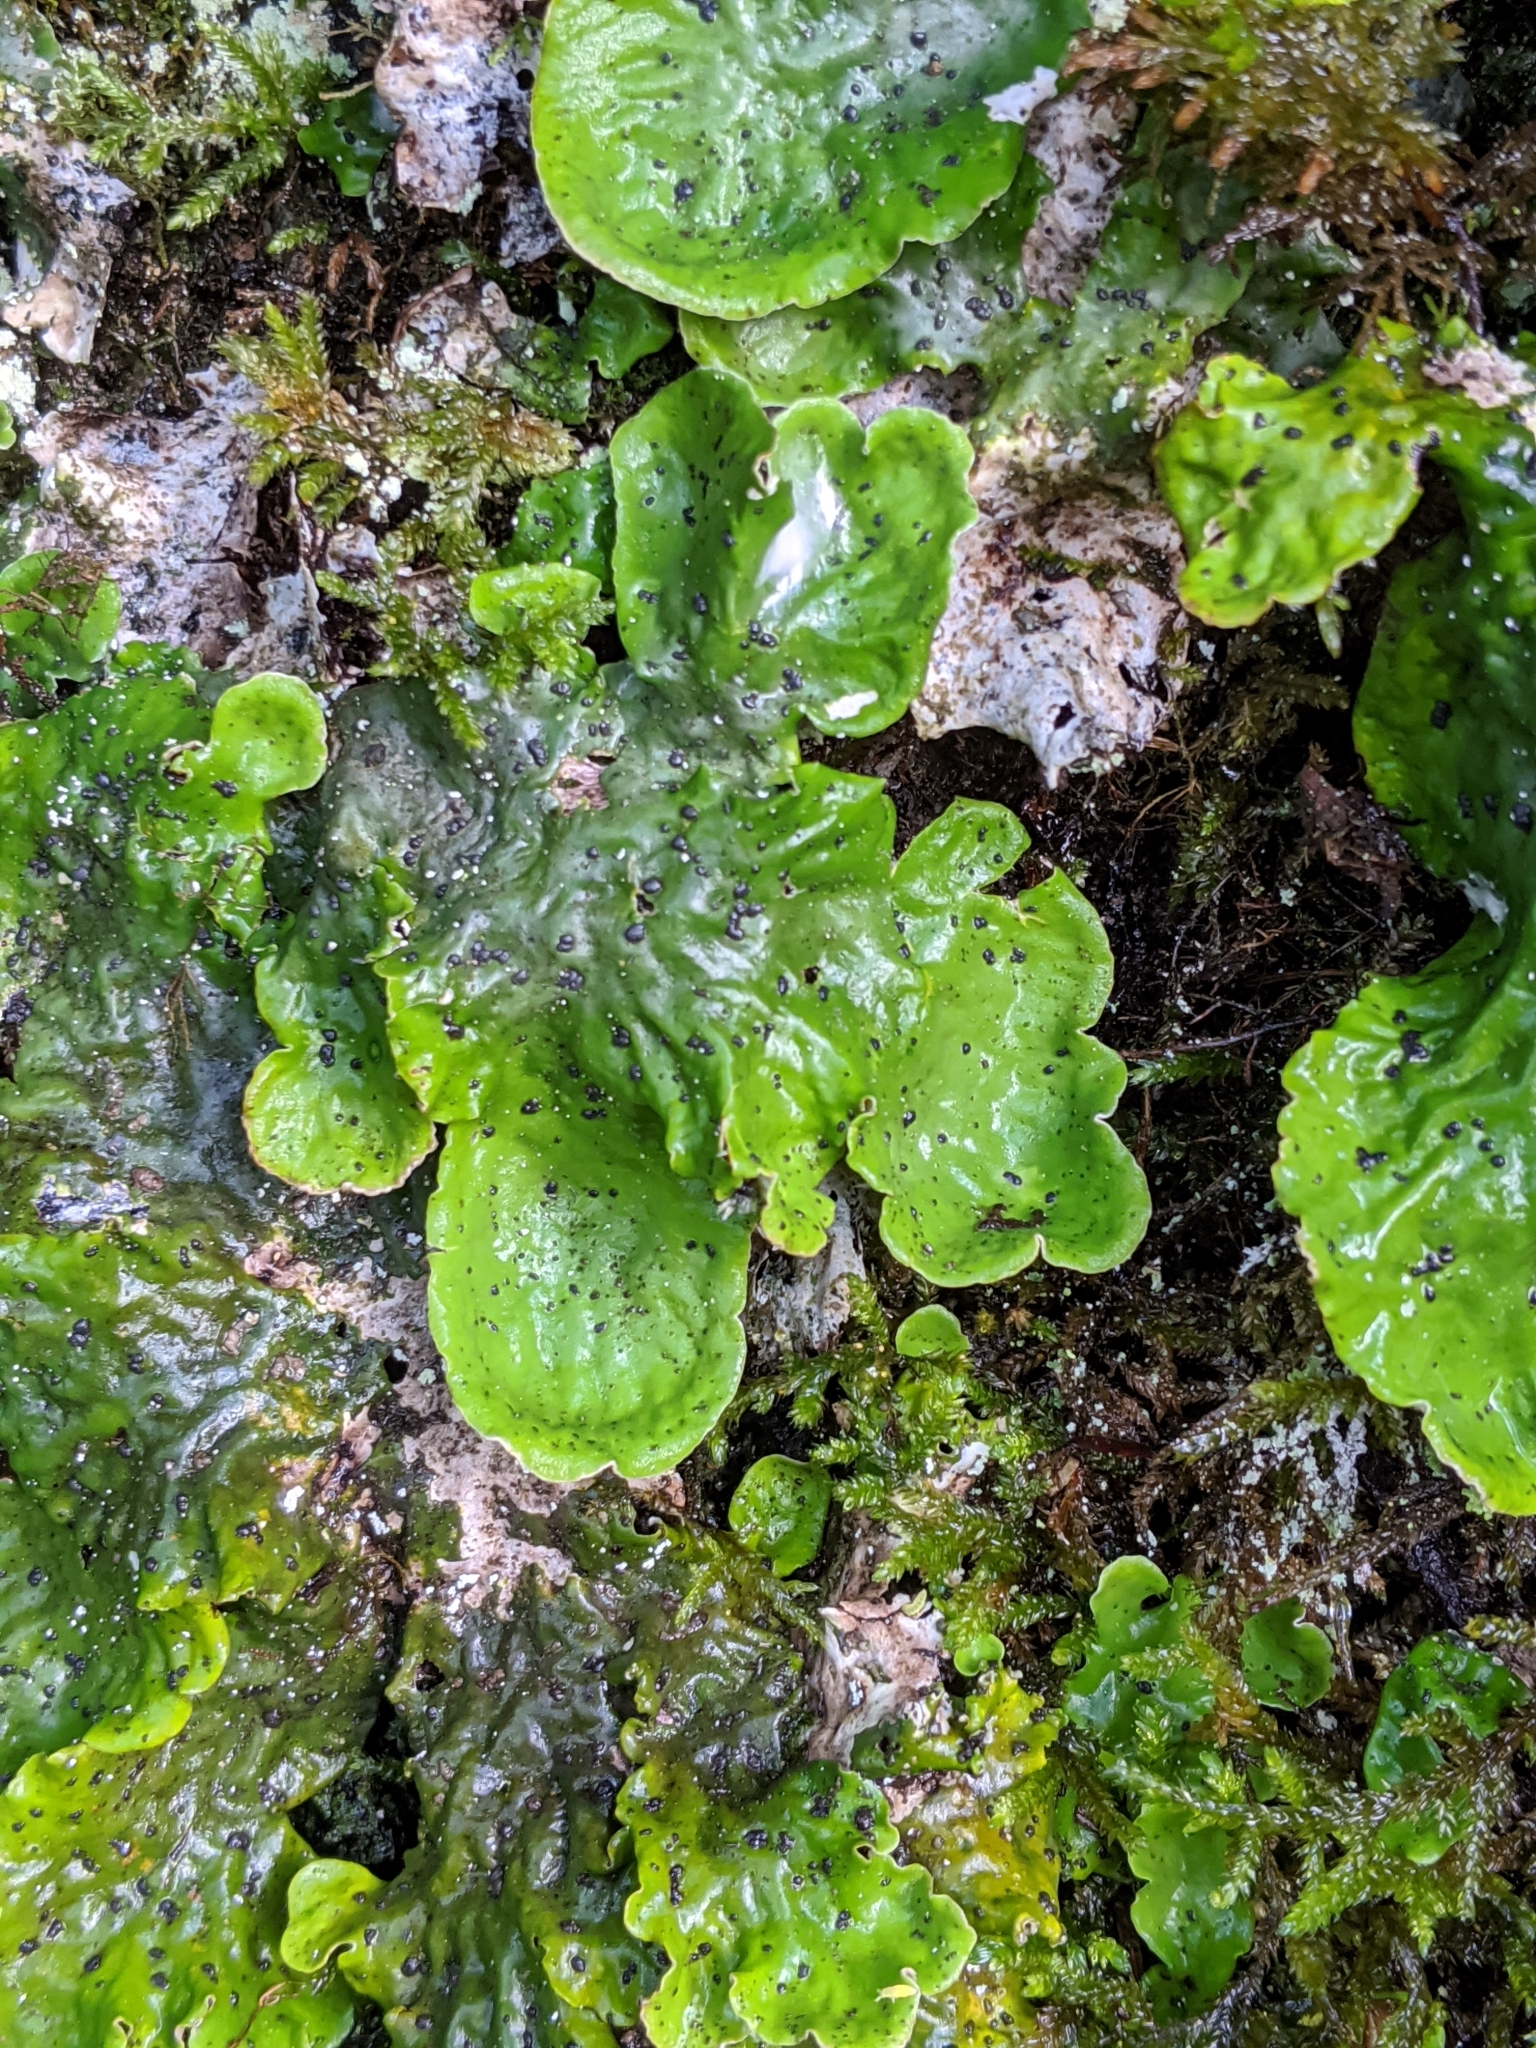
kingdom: Fungi
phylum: Ascomycota
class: Lecanoromycetes
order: Peltigerales
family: Peltigeraceae
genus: Peltigera
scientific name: Peltigera aphthosa
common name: Common freckle pelt lichen
